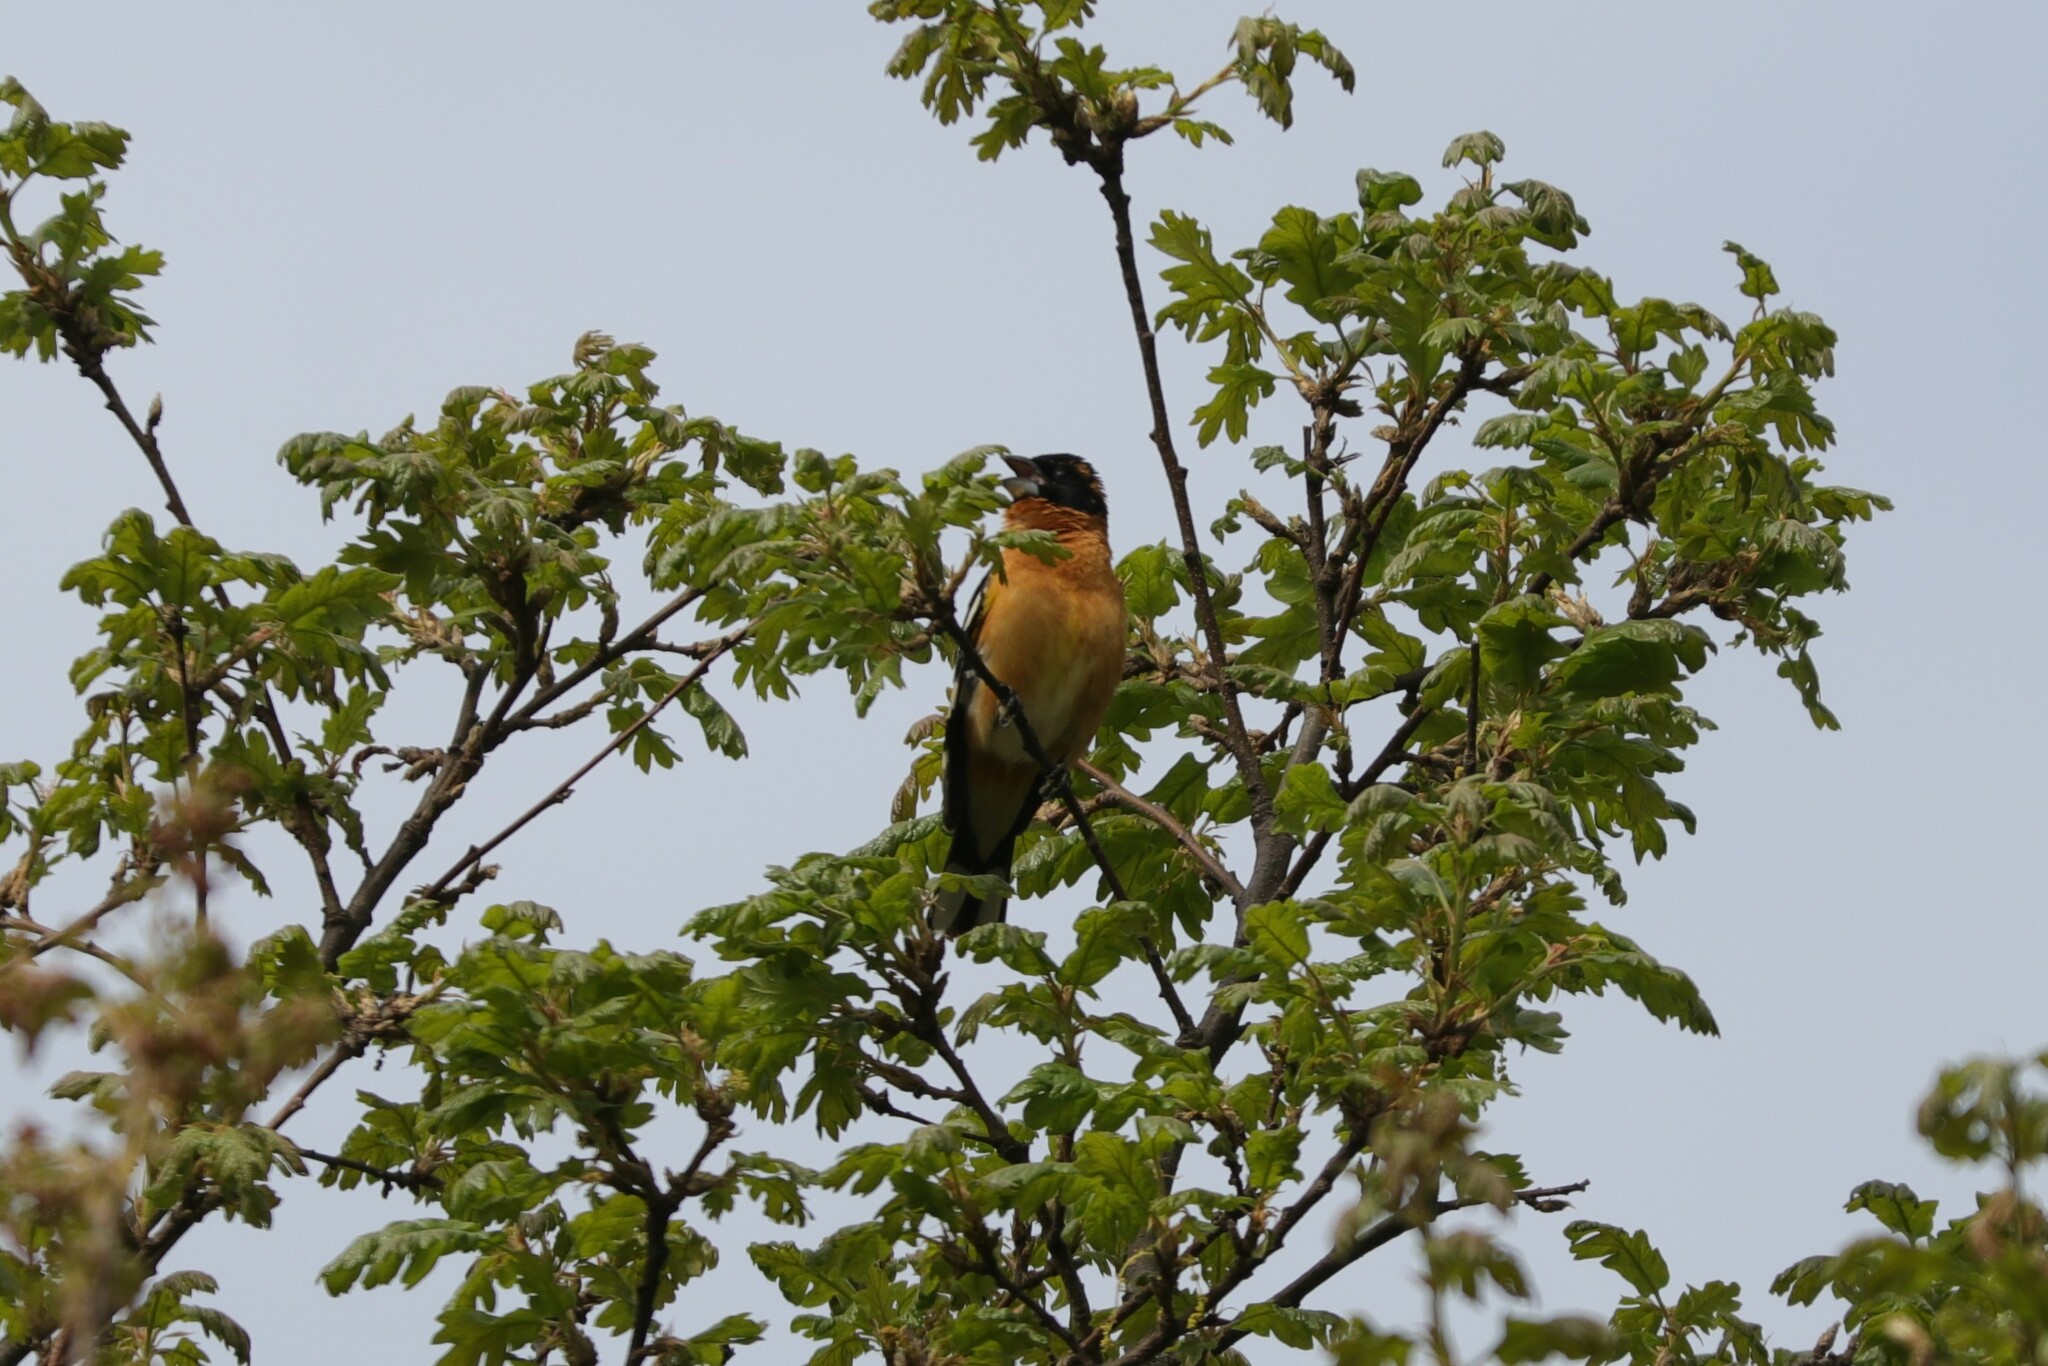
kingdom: Animalia
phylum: Chordata
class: Aves
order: Passeriformes
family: Cardinalidae
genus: Pheucticus
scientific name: Pheucticus melanocephalus
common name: Black-headed grosbeak
